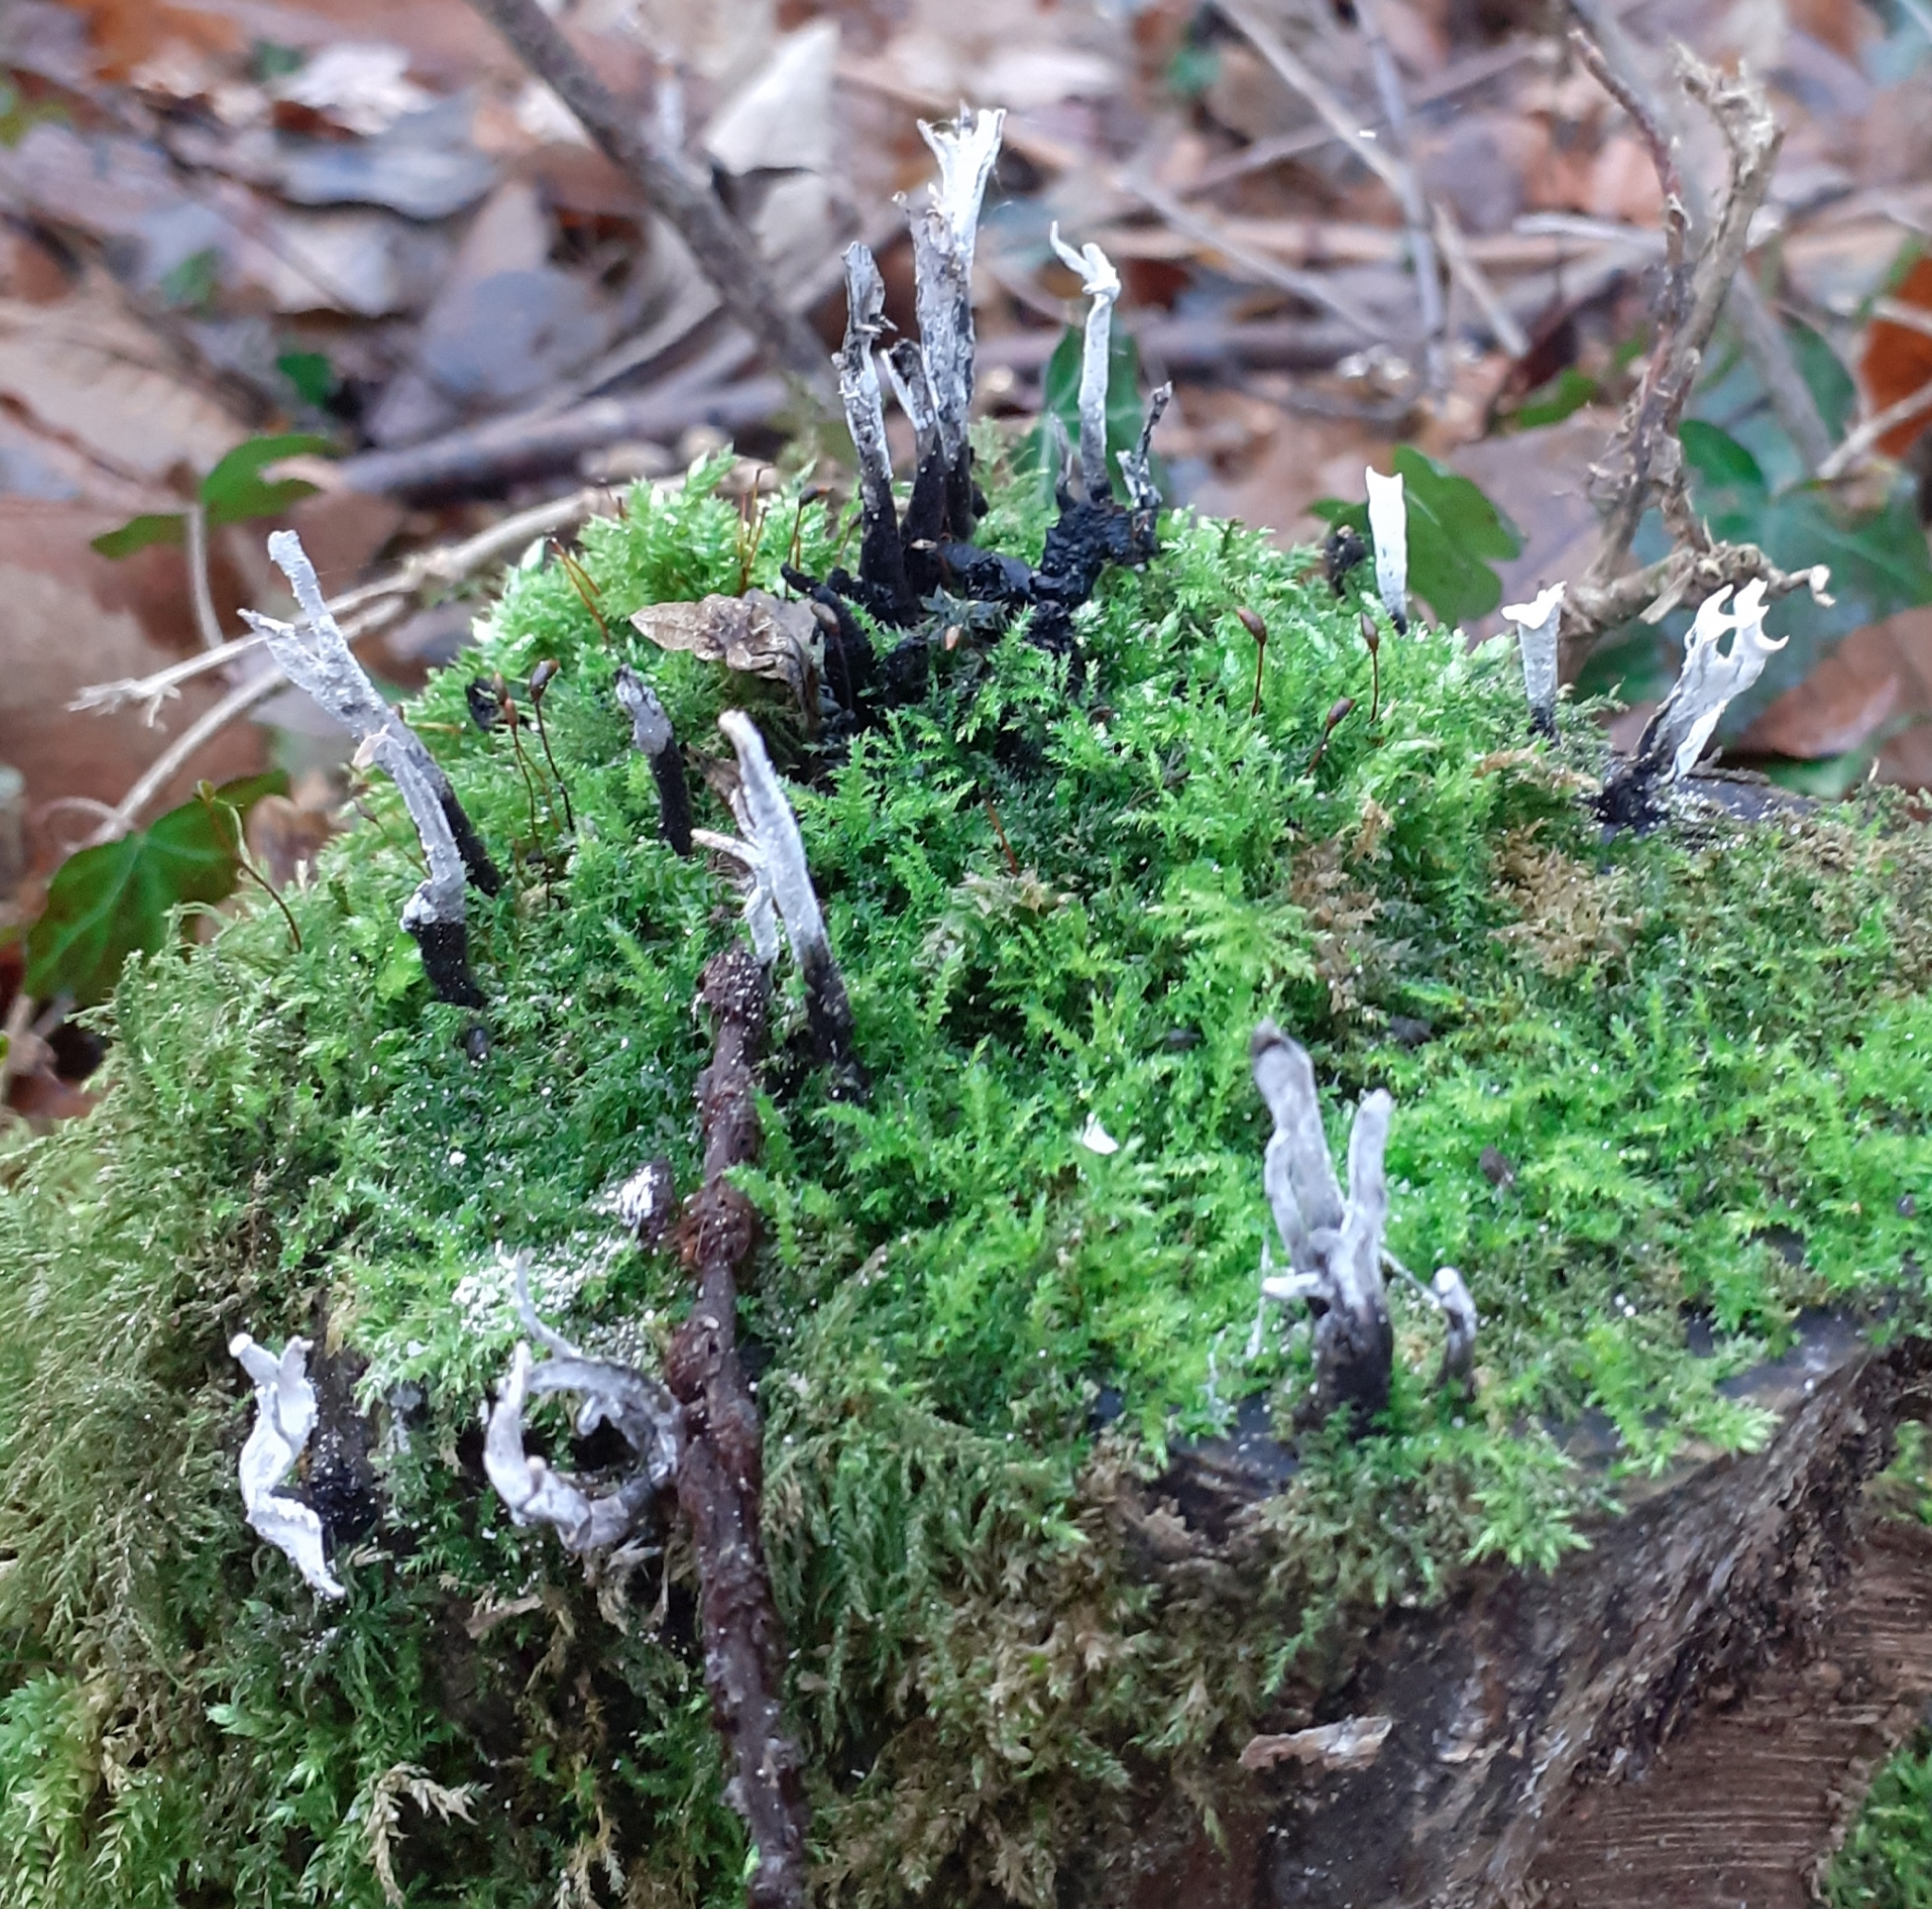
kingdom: Fungi
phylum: Ascomycota
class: Sordariomycetes
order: Xylariales
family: Xylariaceae
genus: Xylaria
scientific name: Xylaria hypoxylon
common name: Candle-snuff fungus
